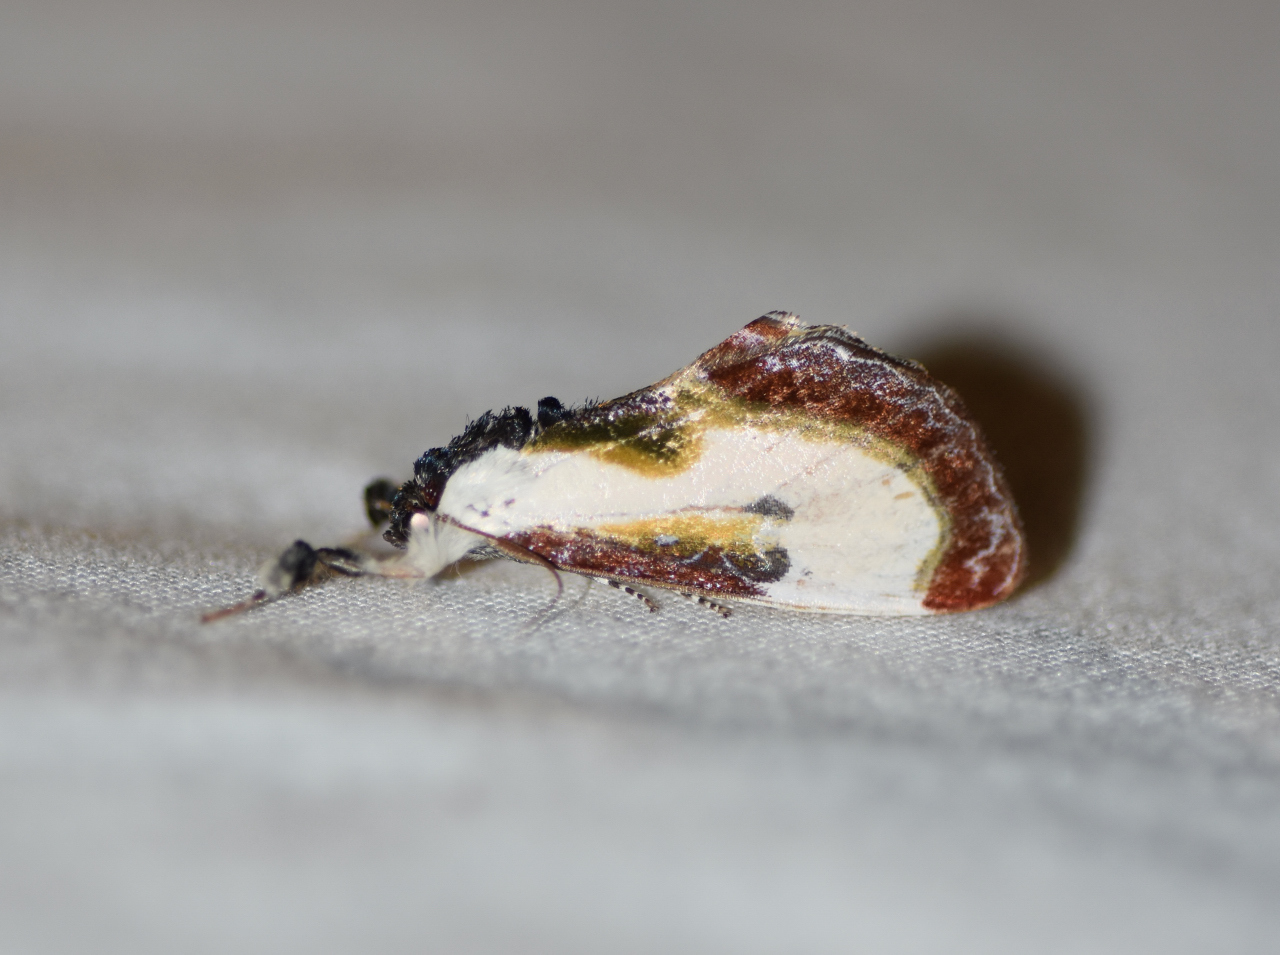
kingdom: Animalia
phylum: Arthropoda
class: Insecta
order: Lepidoptera
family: Noctuidae
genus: Eudryas
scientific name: Eudryas grata
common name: Beautiful wood-nymph
